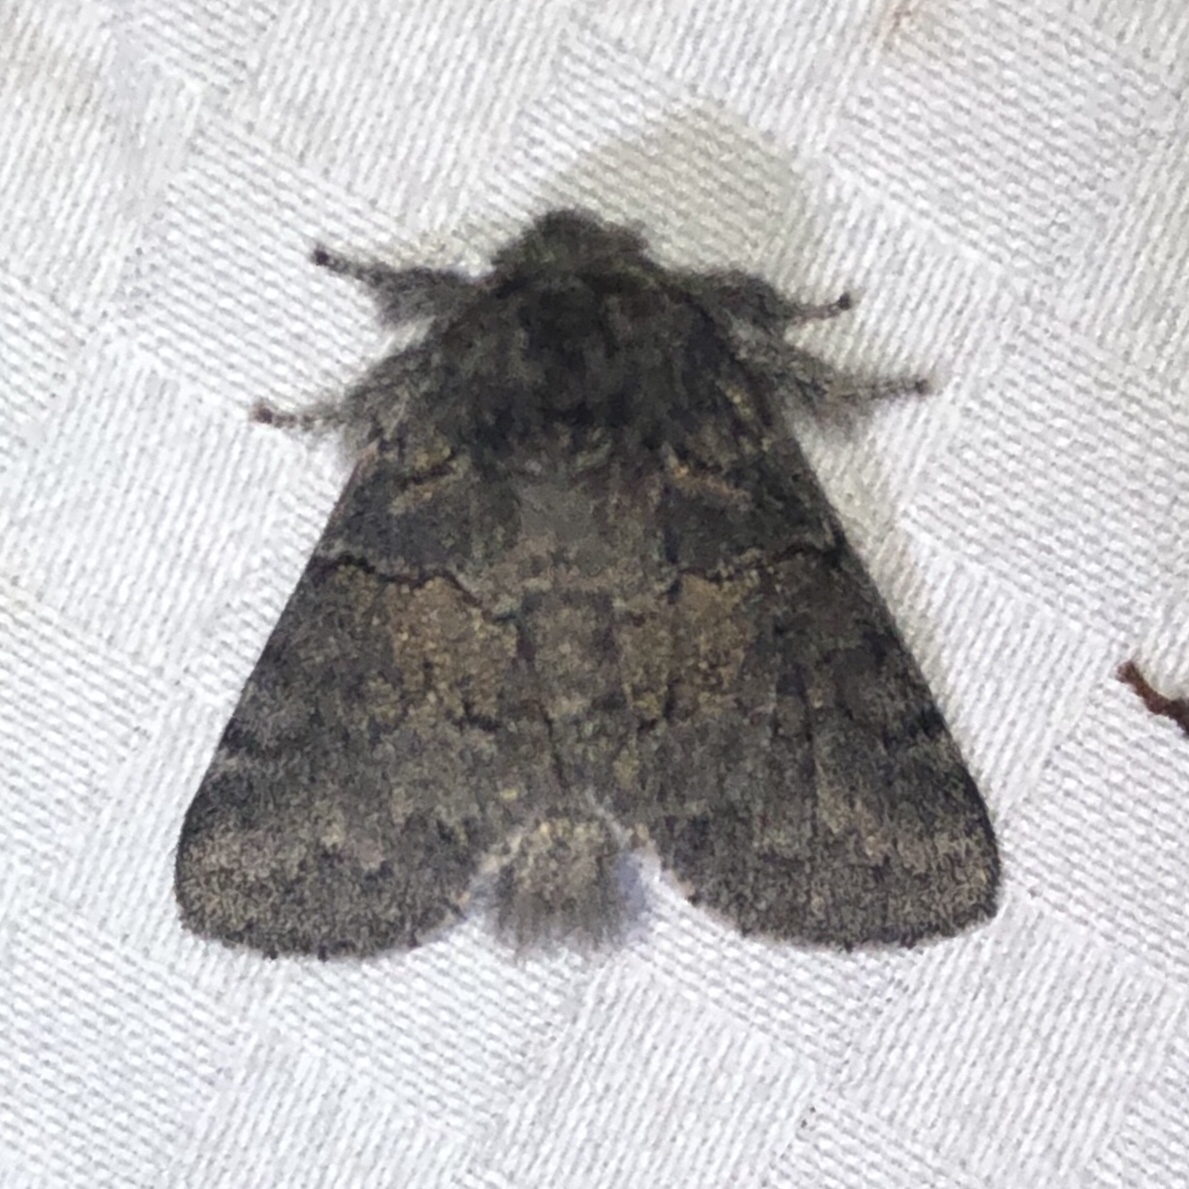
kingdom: Animalia
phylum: Arthropoda
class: Insecta
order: Lepidoptera
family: Notodontidae
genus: Gluphisia
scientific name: Gluphisia septentrionis
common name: Common gluphisia
